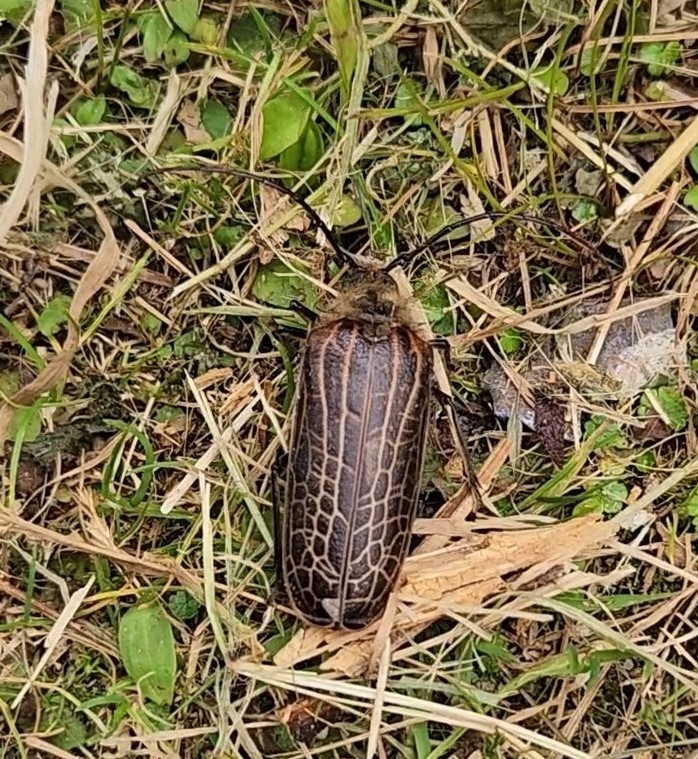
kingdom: Animalia
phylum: Arthropoda
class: Insecta
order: Coleoptera
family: Cerambycidae
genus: Prionoplus
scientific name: Prionoplus reticularis
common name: Huhu beetle
